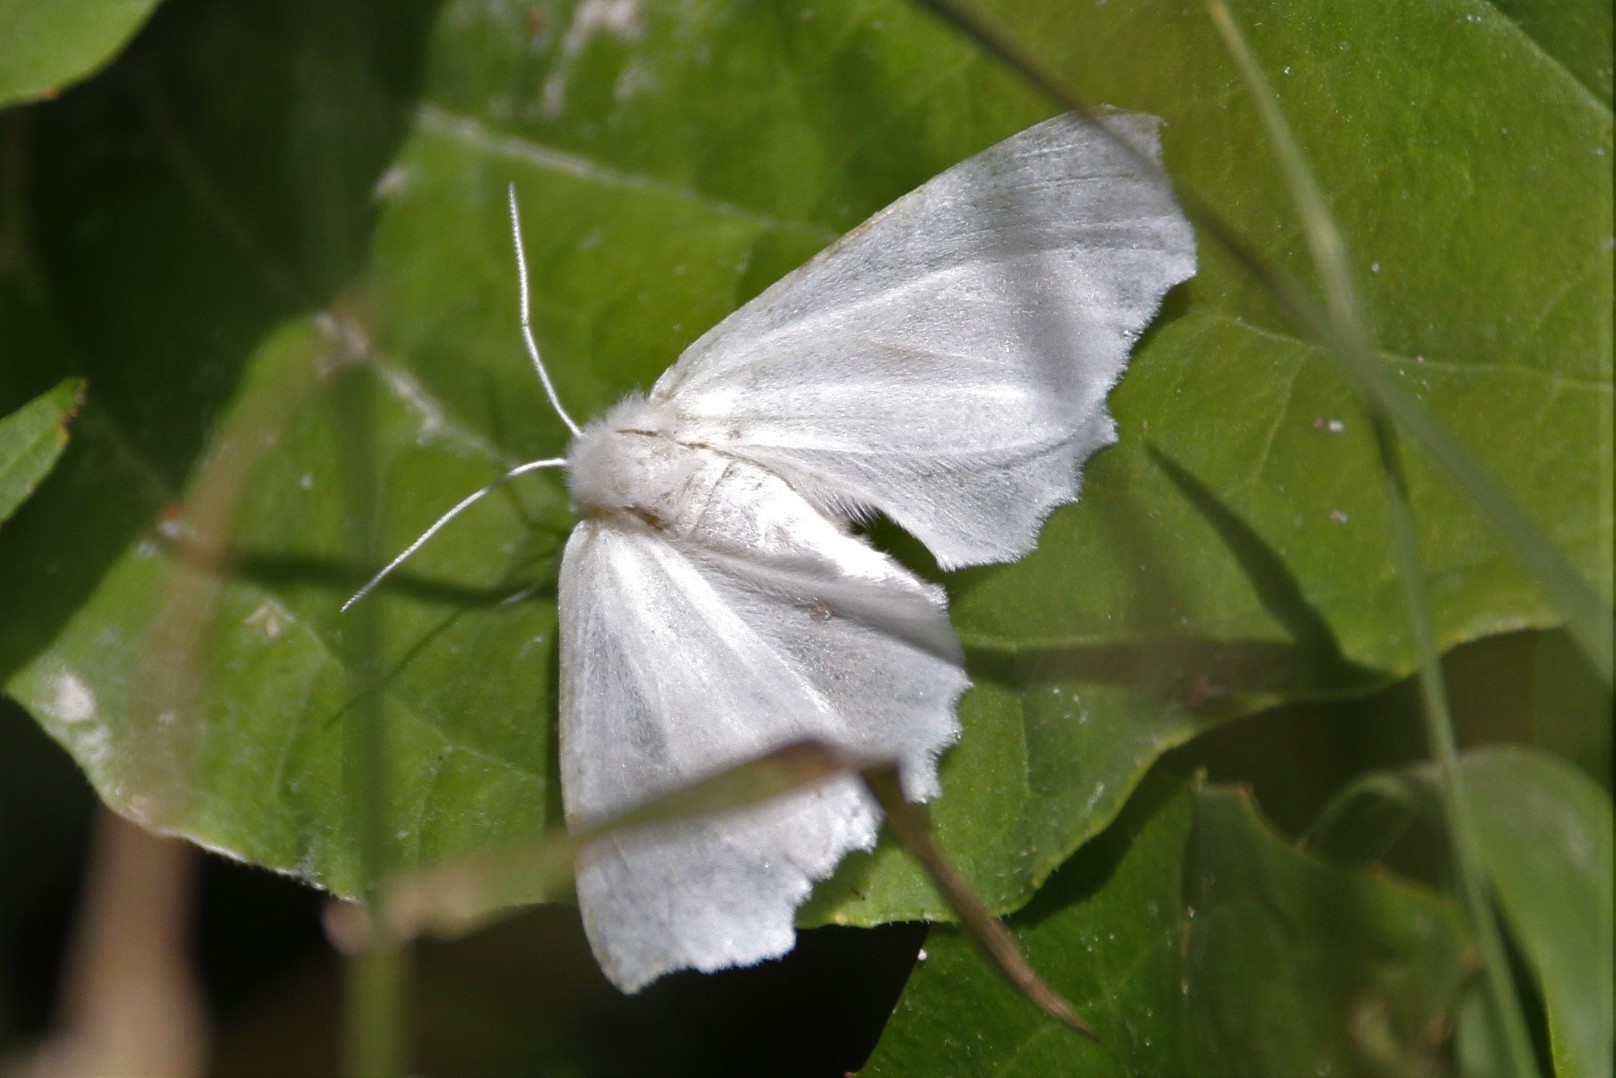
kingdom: Animalia
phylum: Arthropoda
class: Insecta
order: Lepidoptera
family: Geometridae
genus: Ennomos
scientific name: Ennomos subsignaria
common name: Elm spanworm
